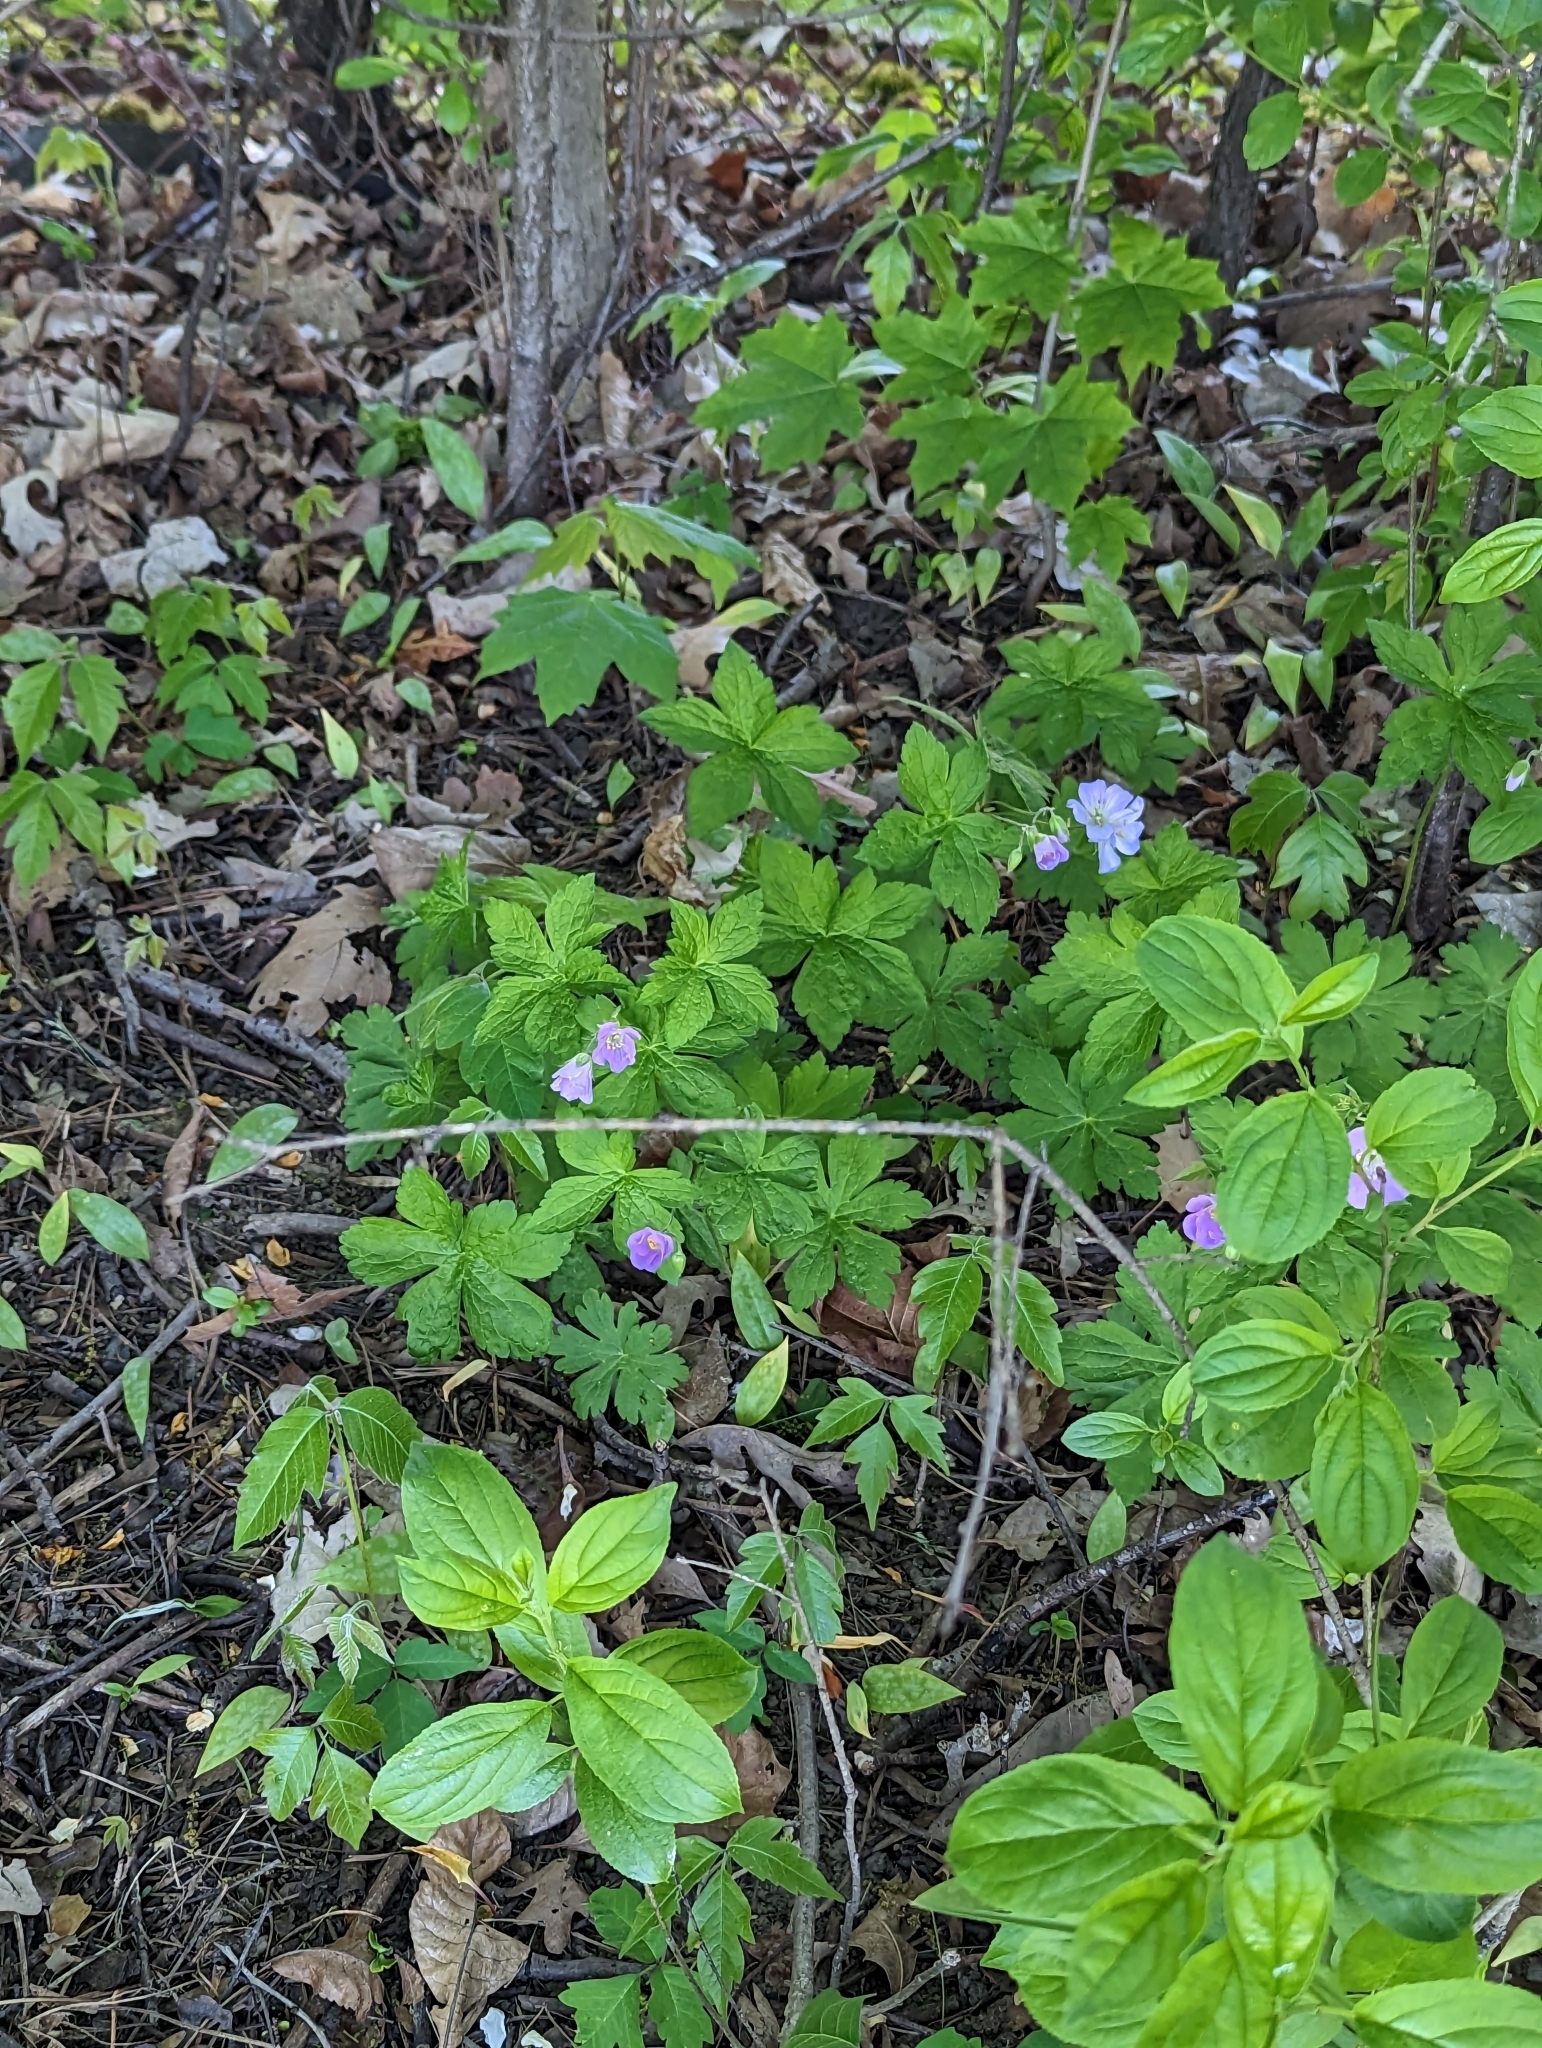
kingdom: Plantae
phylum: Tracheophyta
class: Magnoliopsida
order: Geraniales
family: Geraniaceae
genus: Geranium
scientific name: Geranium maculatum
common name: Spotted geranium
